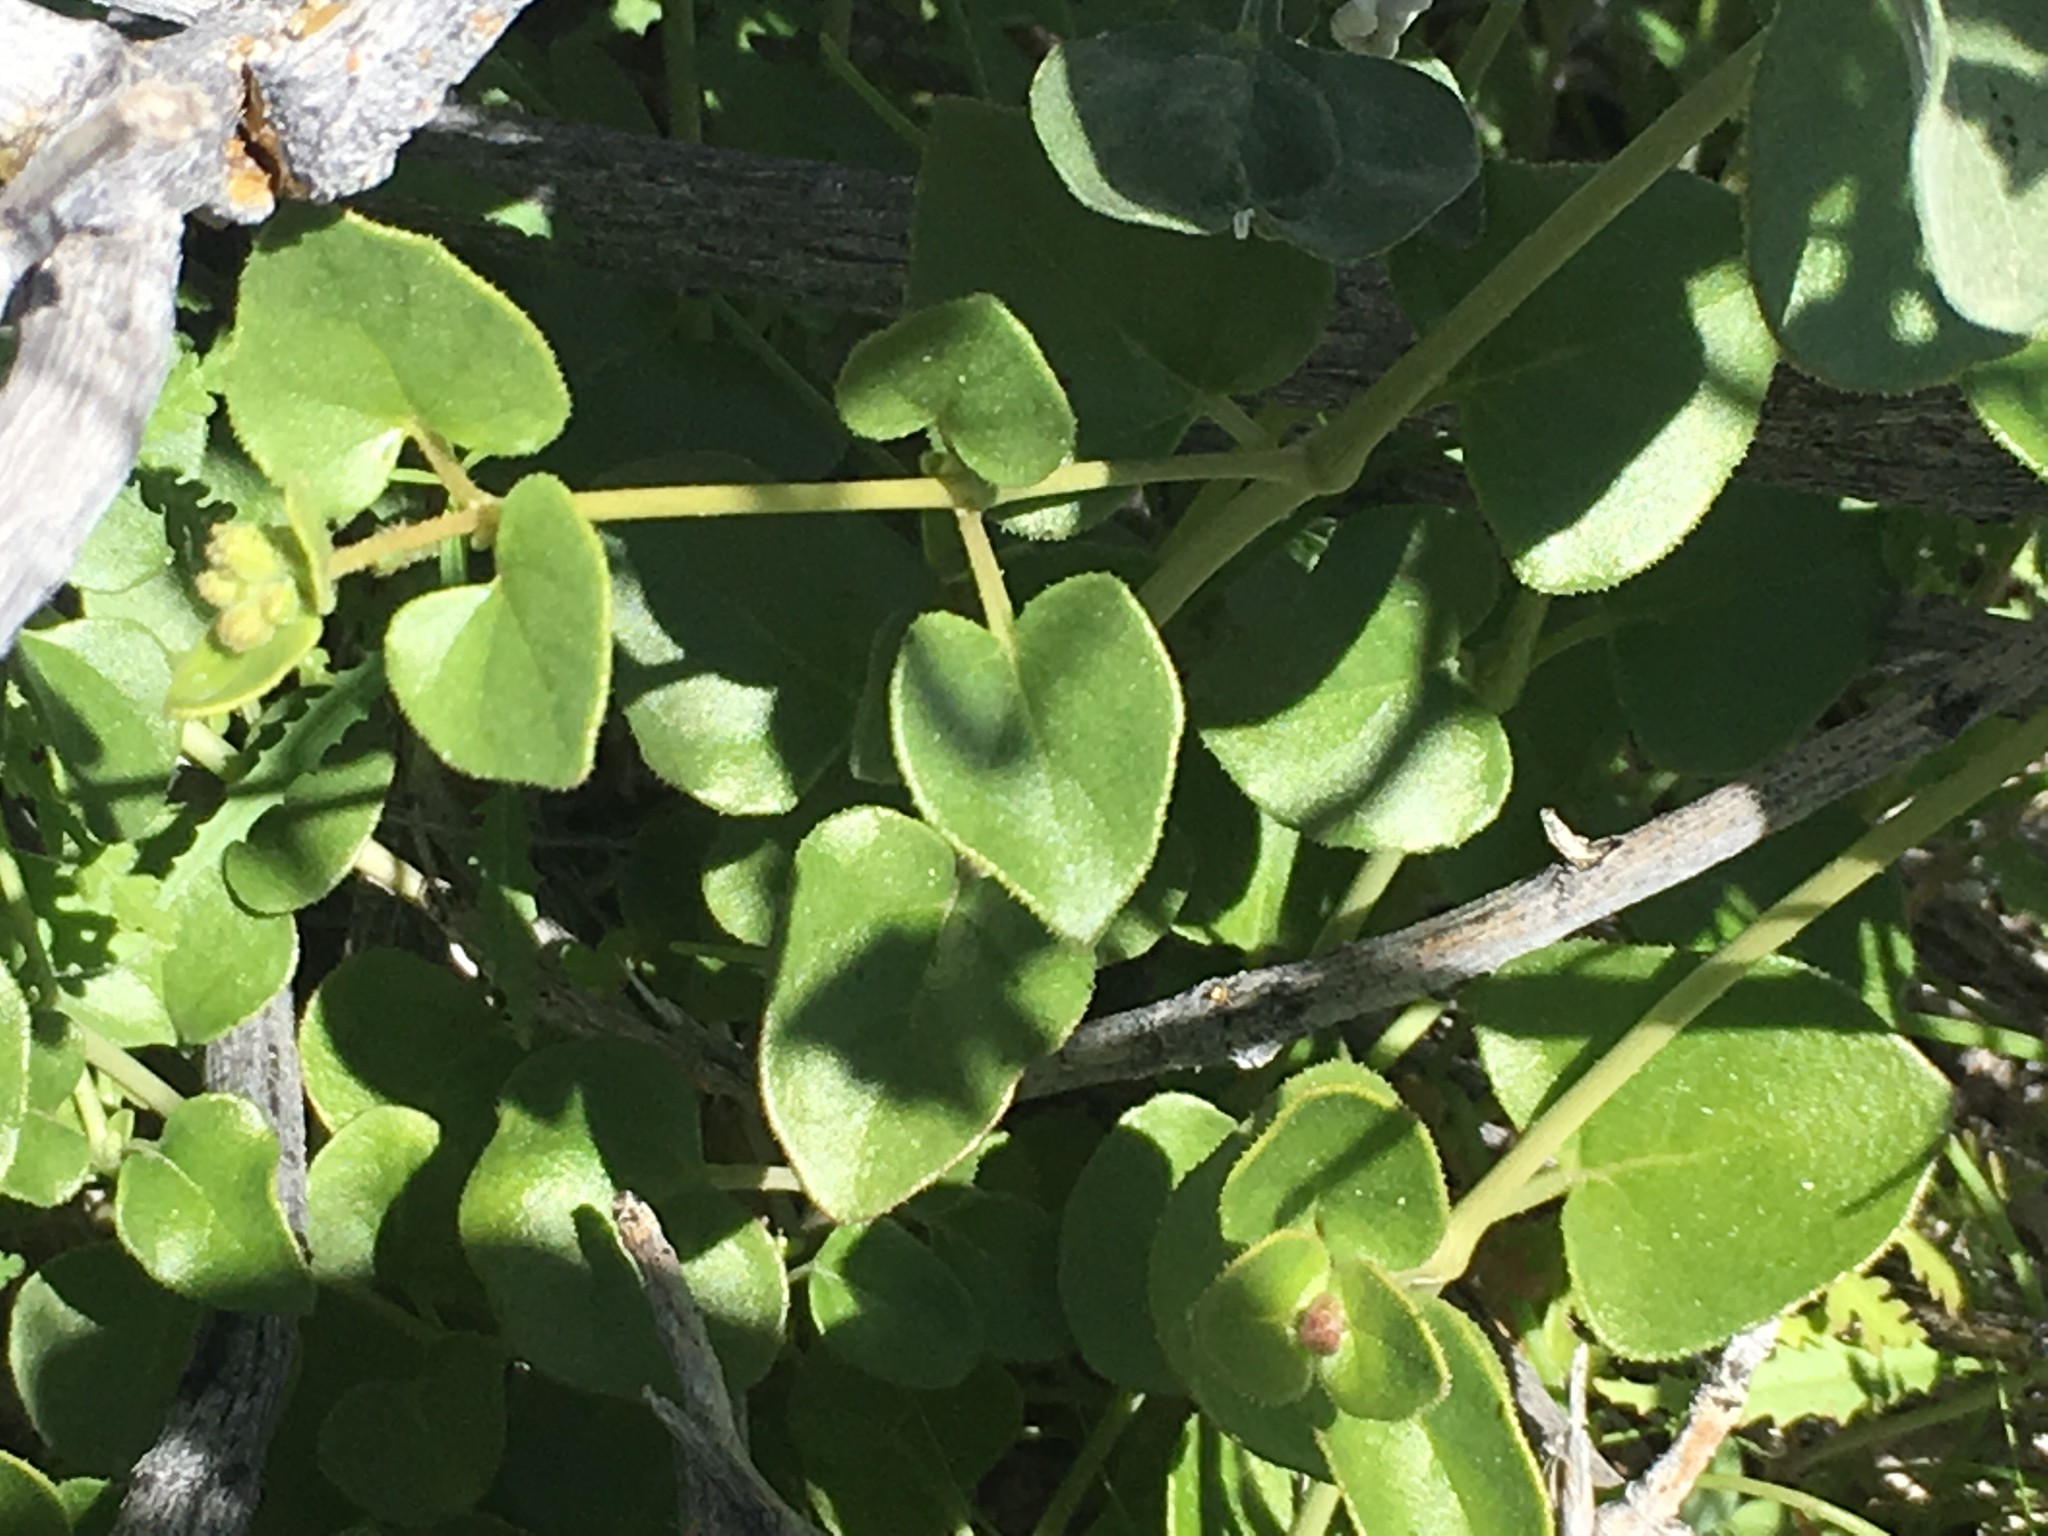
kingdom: Plantae
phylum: Tracheophyta
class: Magnoliopsida
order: Caryophyllales
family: Nyctaginaceae
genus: Mirabilis
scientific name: Mirabilis laevis
